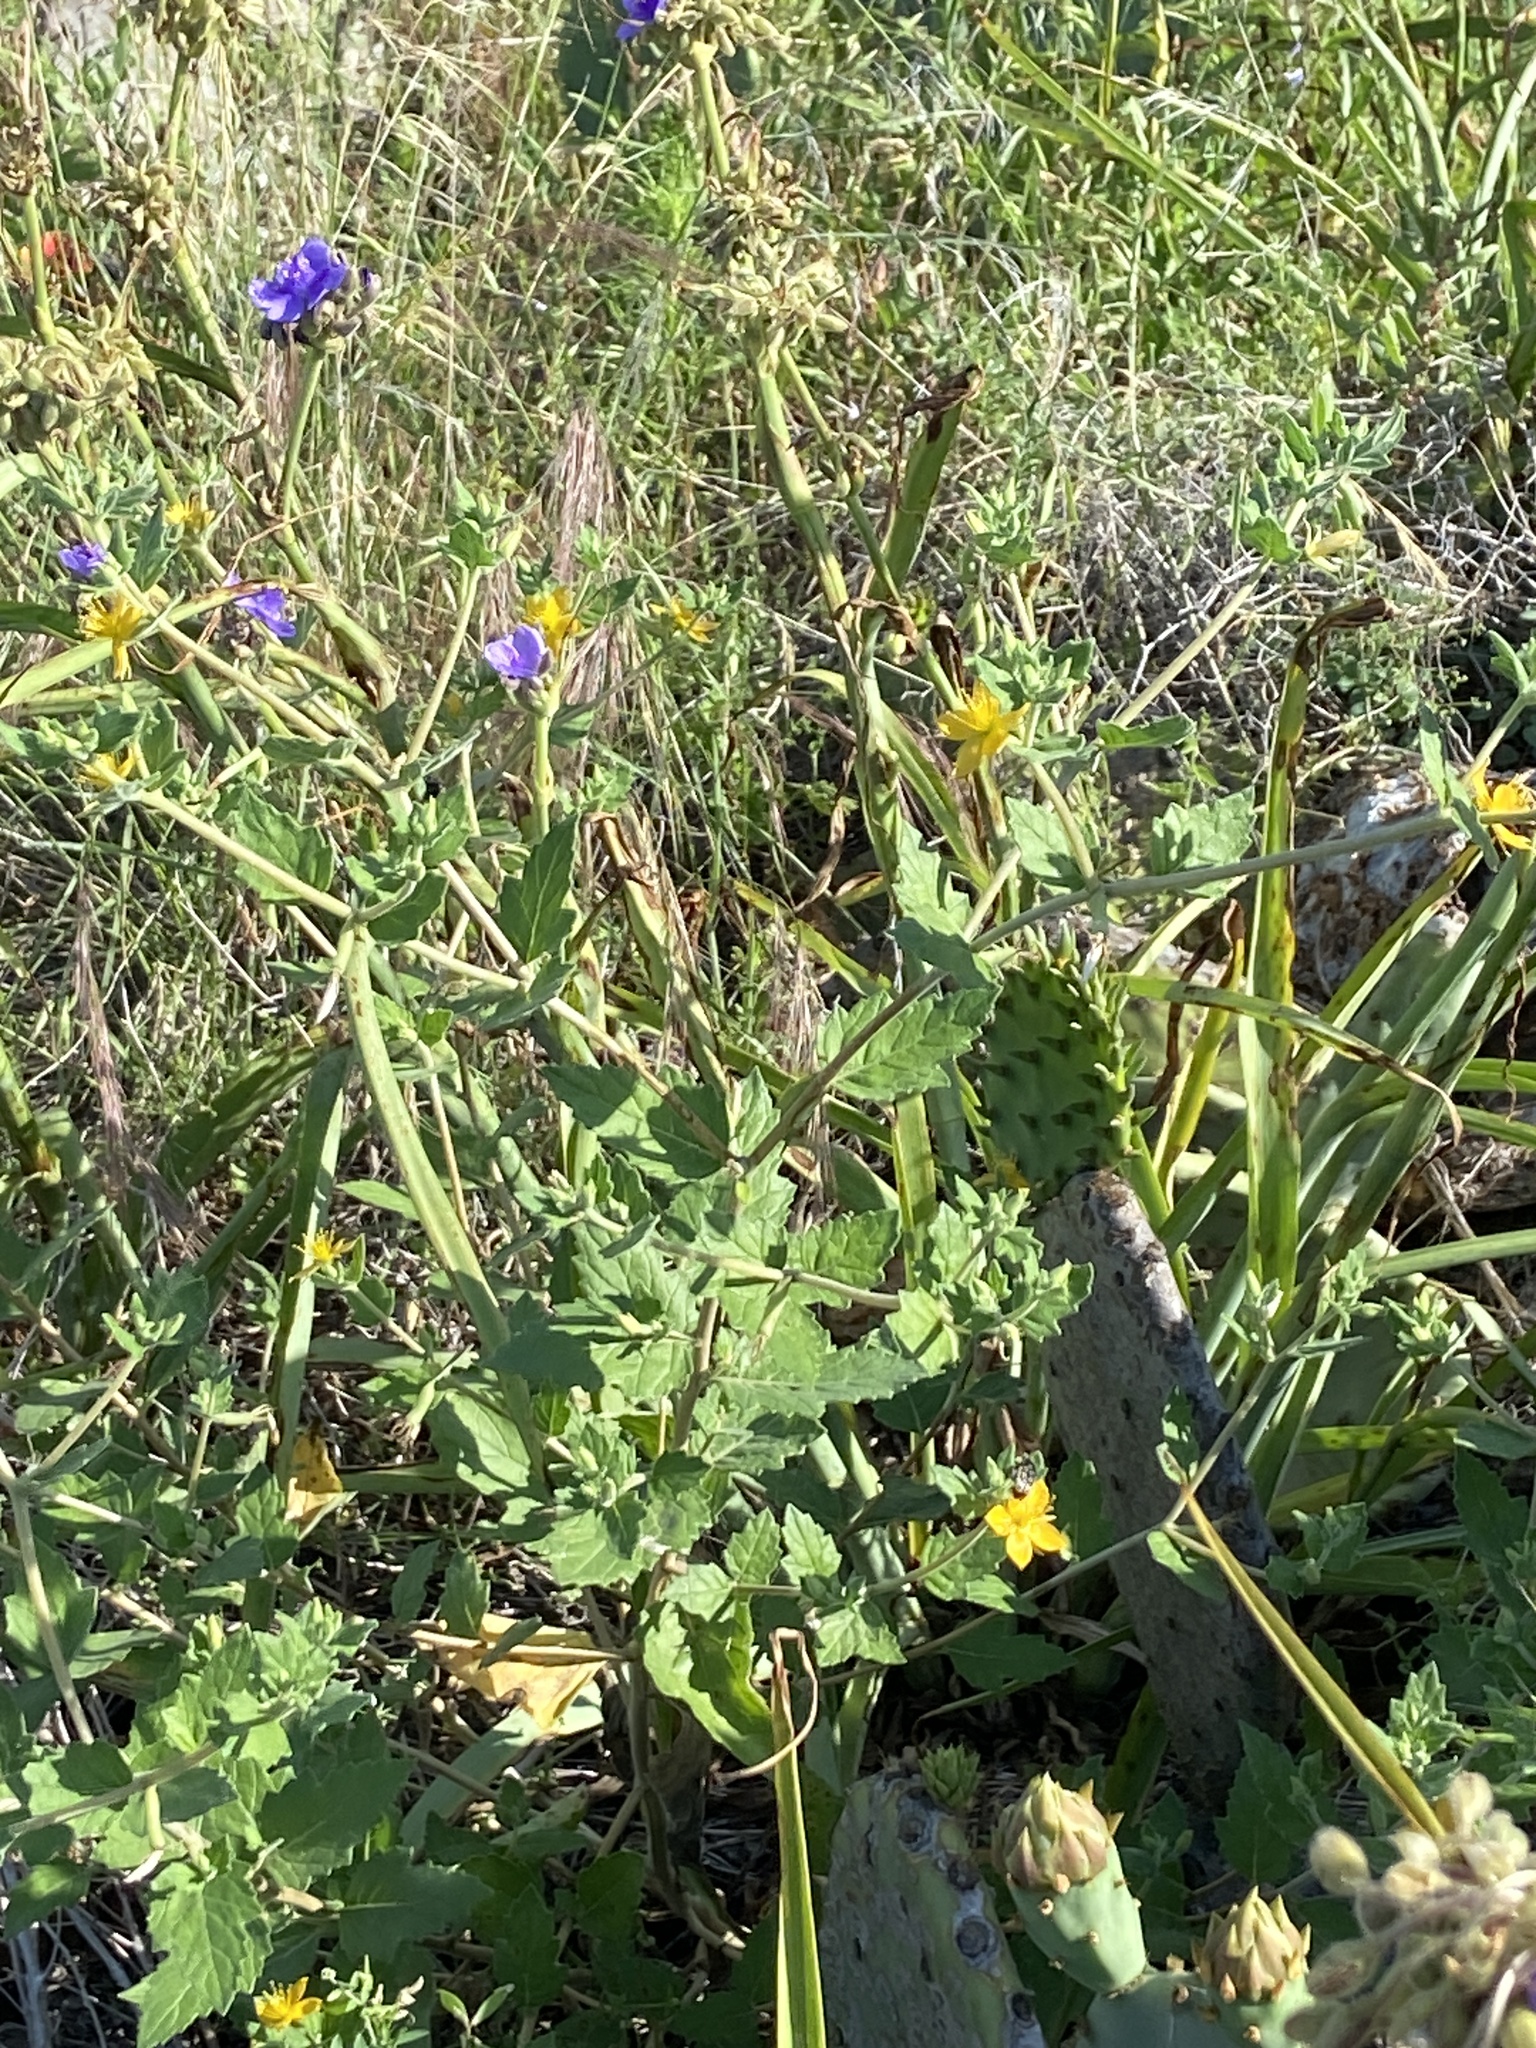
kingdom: Plantae
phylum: Tracheophyta
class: Magnoliopsida
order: Cornales
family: Loasaceae
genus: Mentzelia
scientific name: Mentzelia oligosperma
